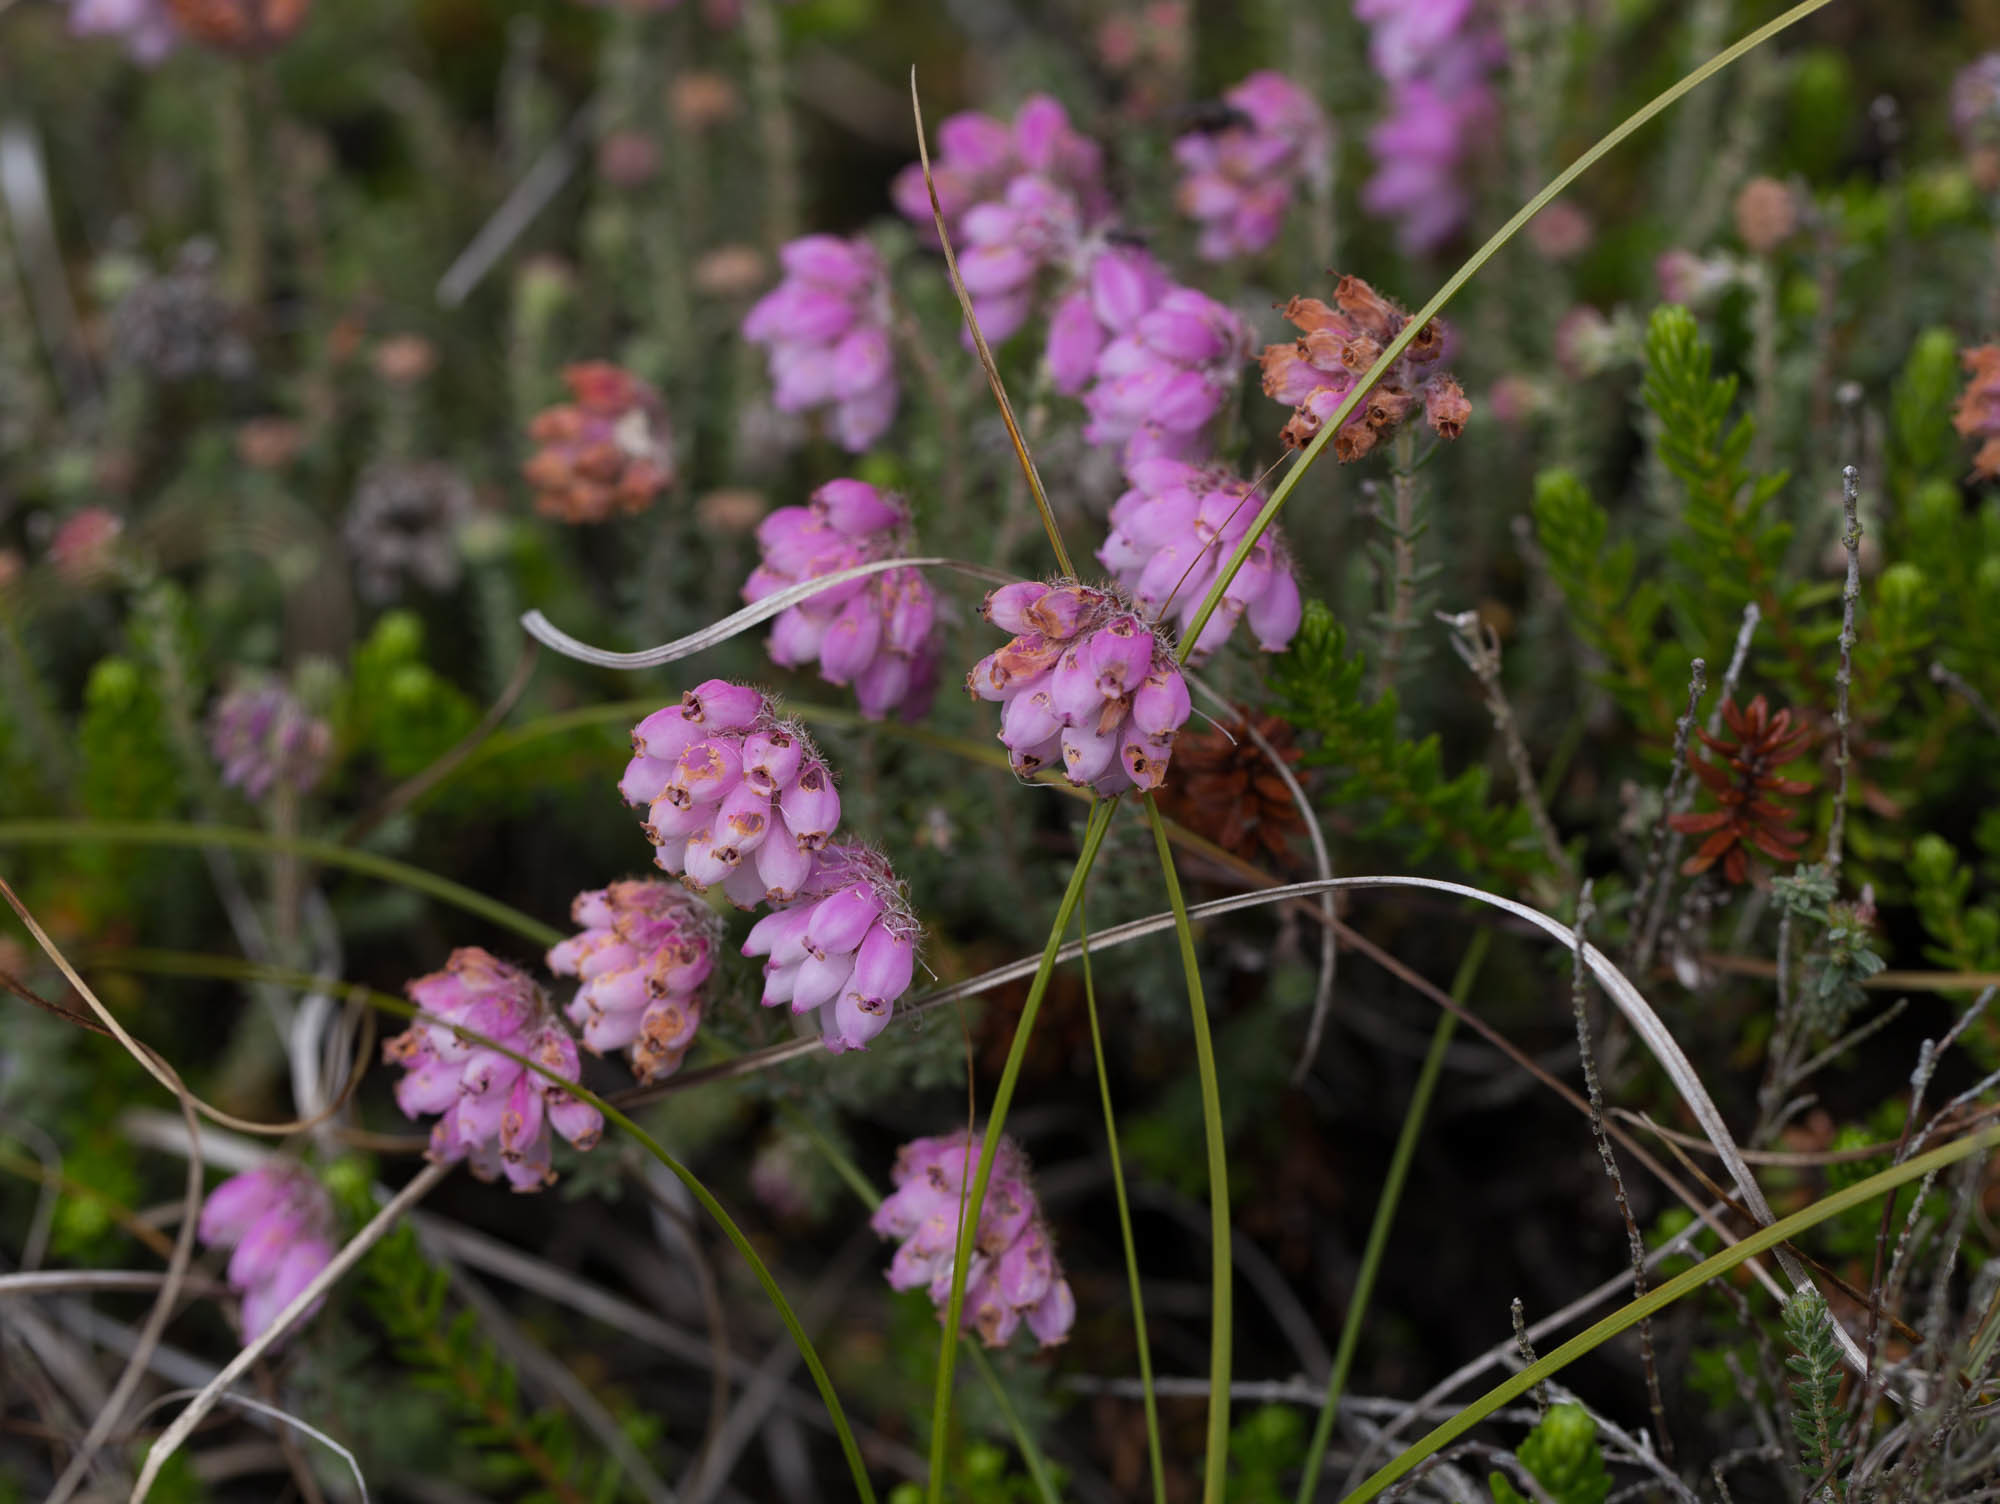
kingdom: Plantae
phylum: Tracheophyta
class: Magnoliopsida
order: Ericales
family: Ericaceae
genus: Erica
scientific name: Erica tetralix
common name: Cross-leaved heath
